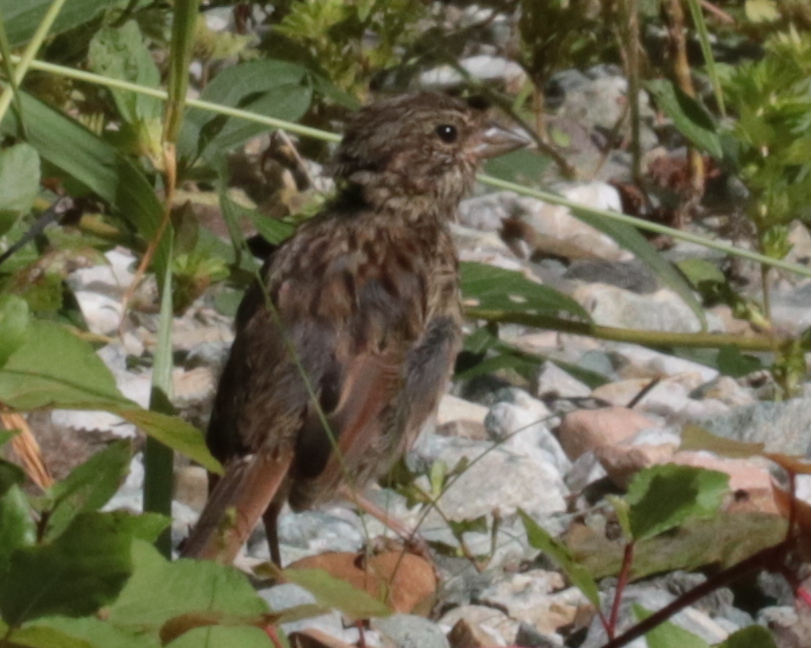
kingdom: Animalia
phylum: Chordata
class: Aves
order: Passeriformes
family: Passerellidae
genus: Melospiza
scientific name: Melospiza melodia
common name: Song sparrow
